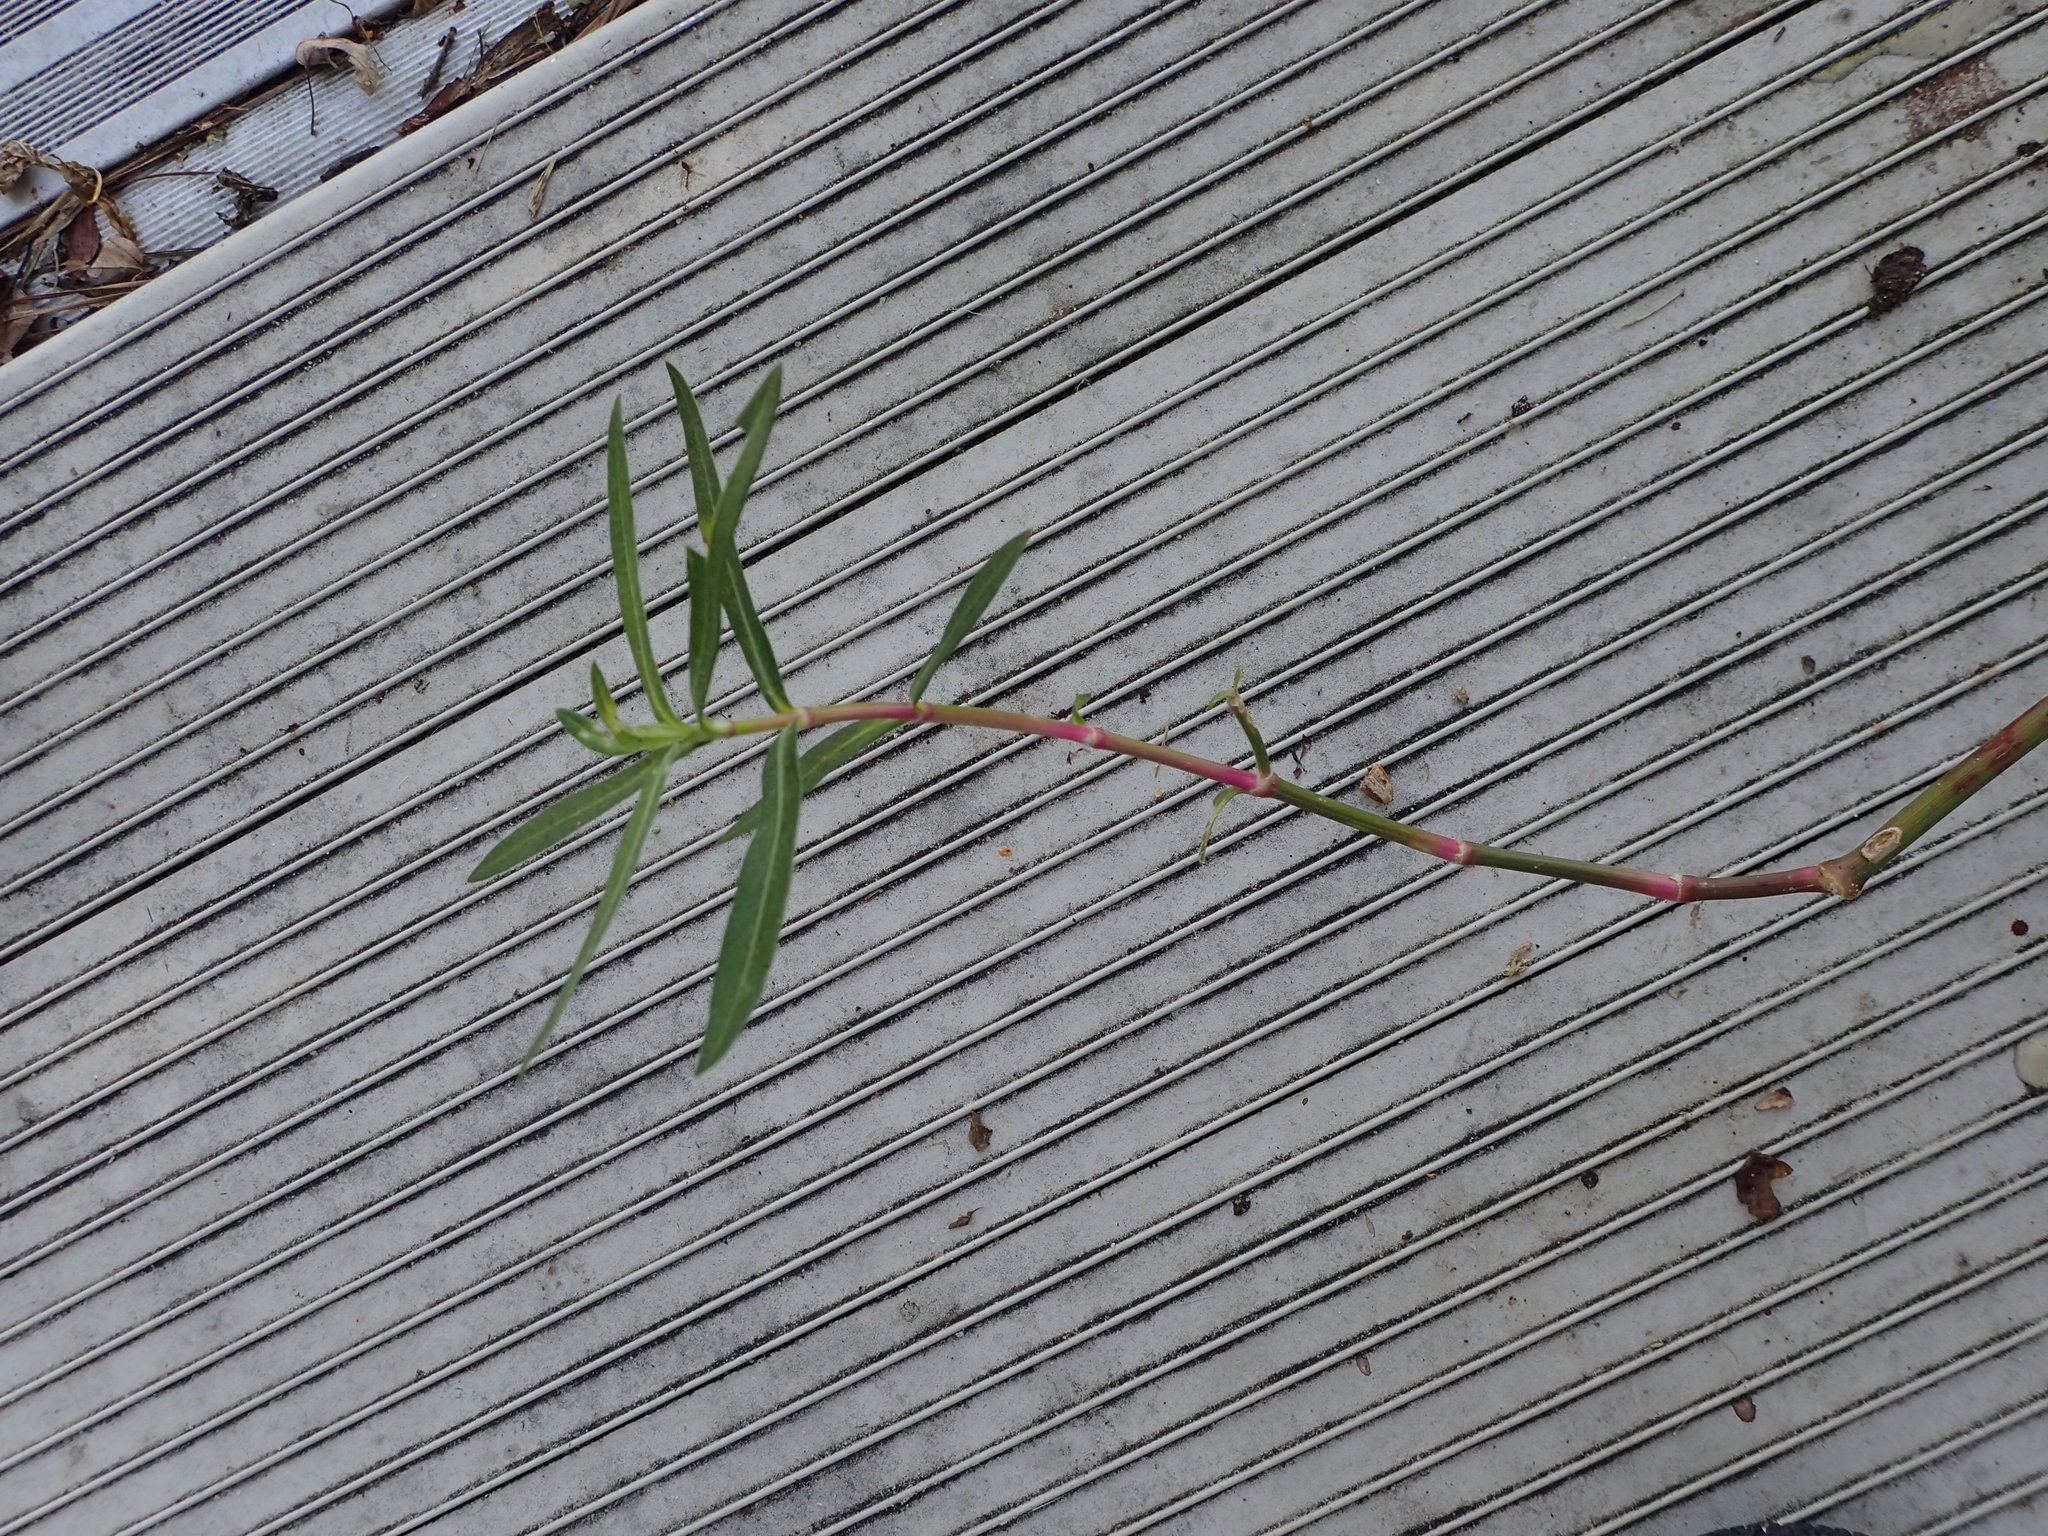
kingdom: Plantae
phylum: Tracheophyta
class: Magnoliopsida
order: Caryophyllales
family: Amaranthaceae
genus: Alternanthera
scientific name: Alternanthera philoxeroides
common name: Alligatorweed
